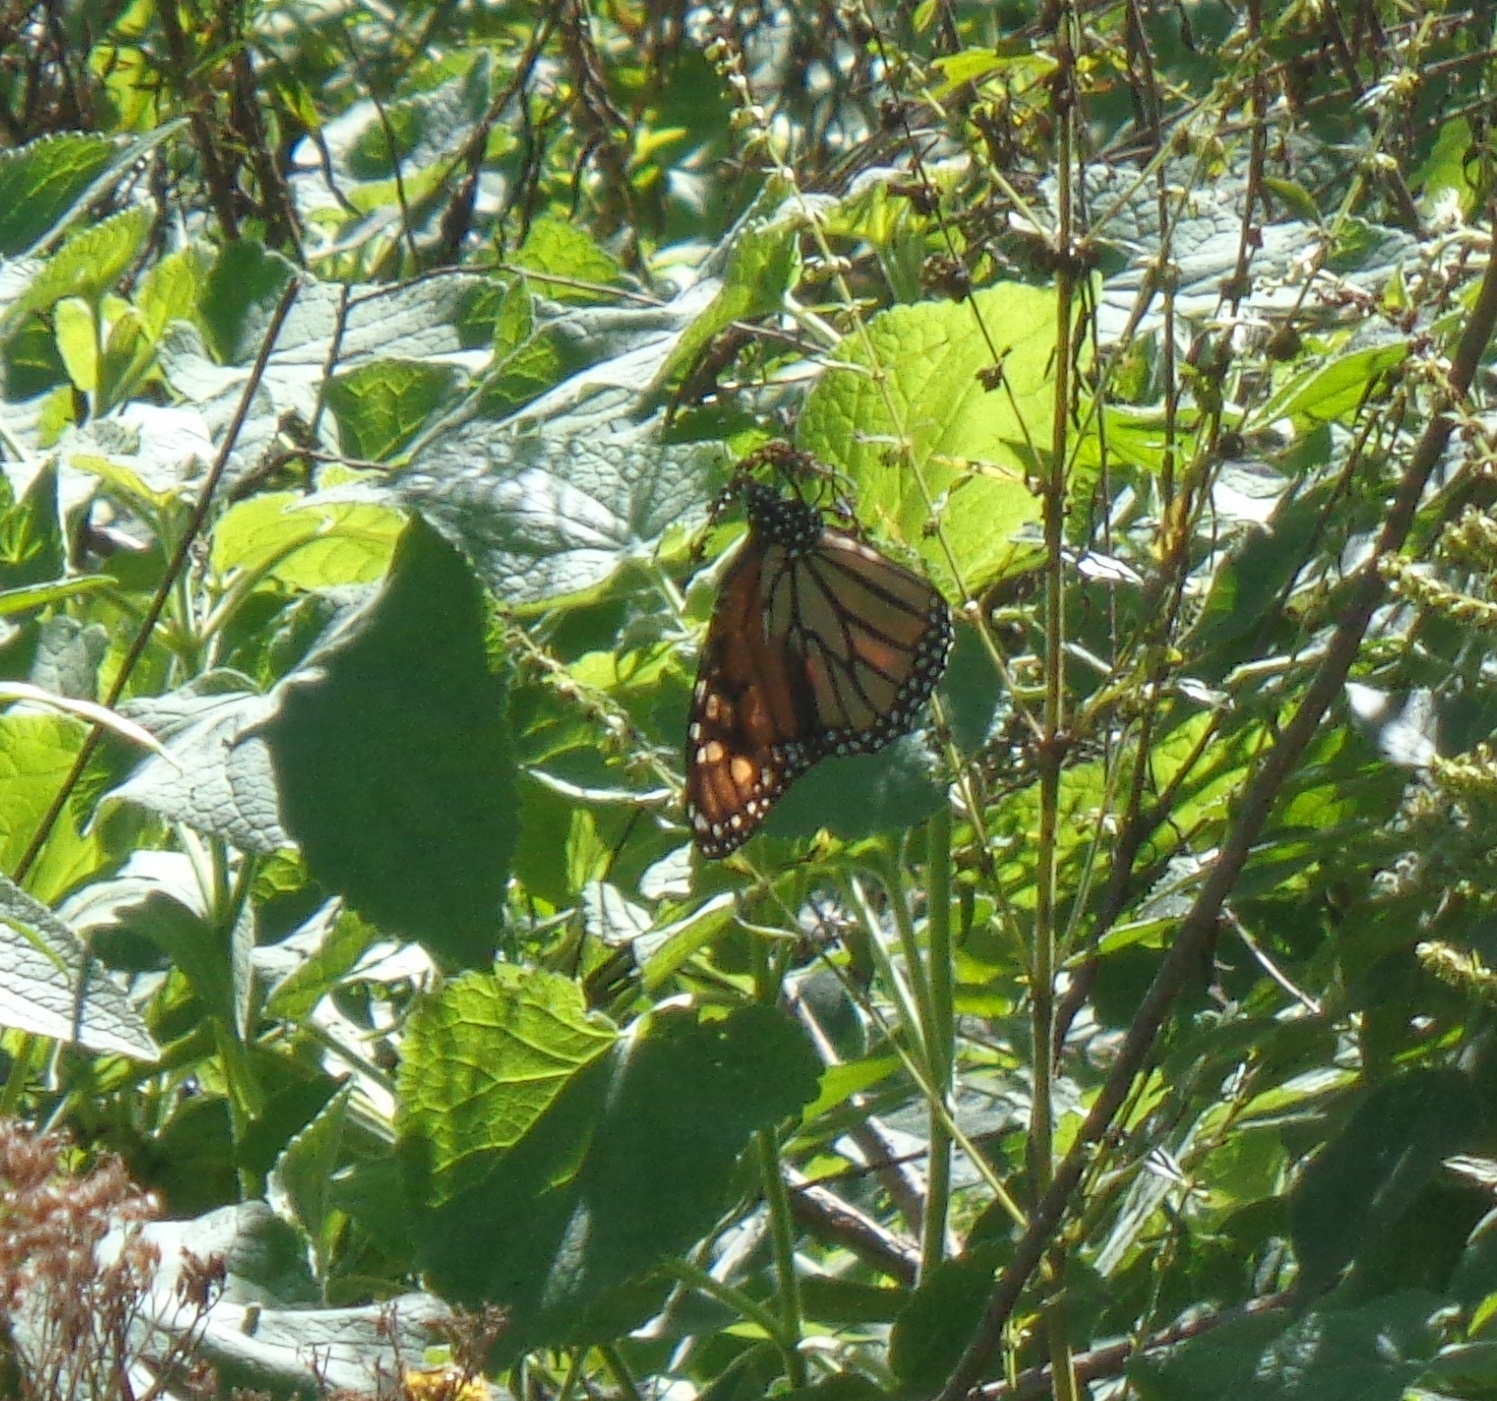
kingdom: Animalia
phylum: Arthropoda
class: Insecta
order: Lepidoptera
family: Nymphalidae
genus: Danaus
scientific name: Danaus plexippus
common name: Monarch
